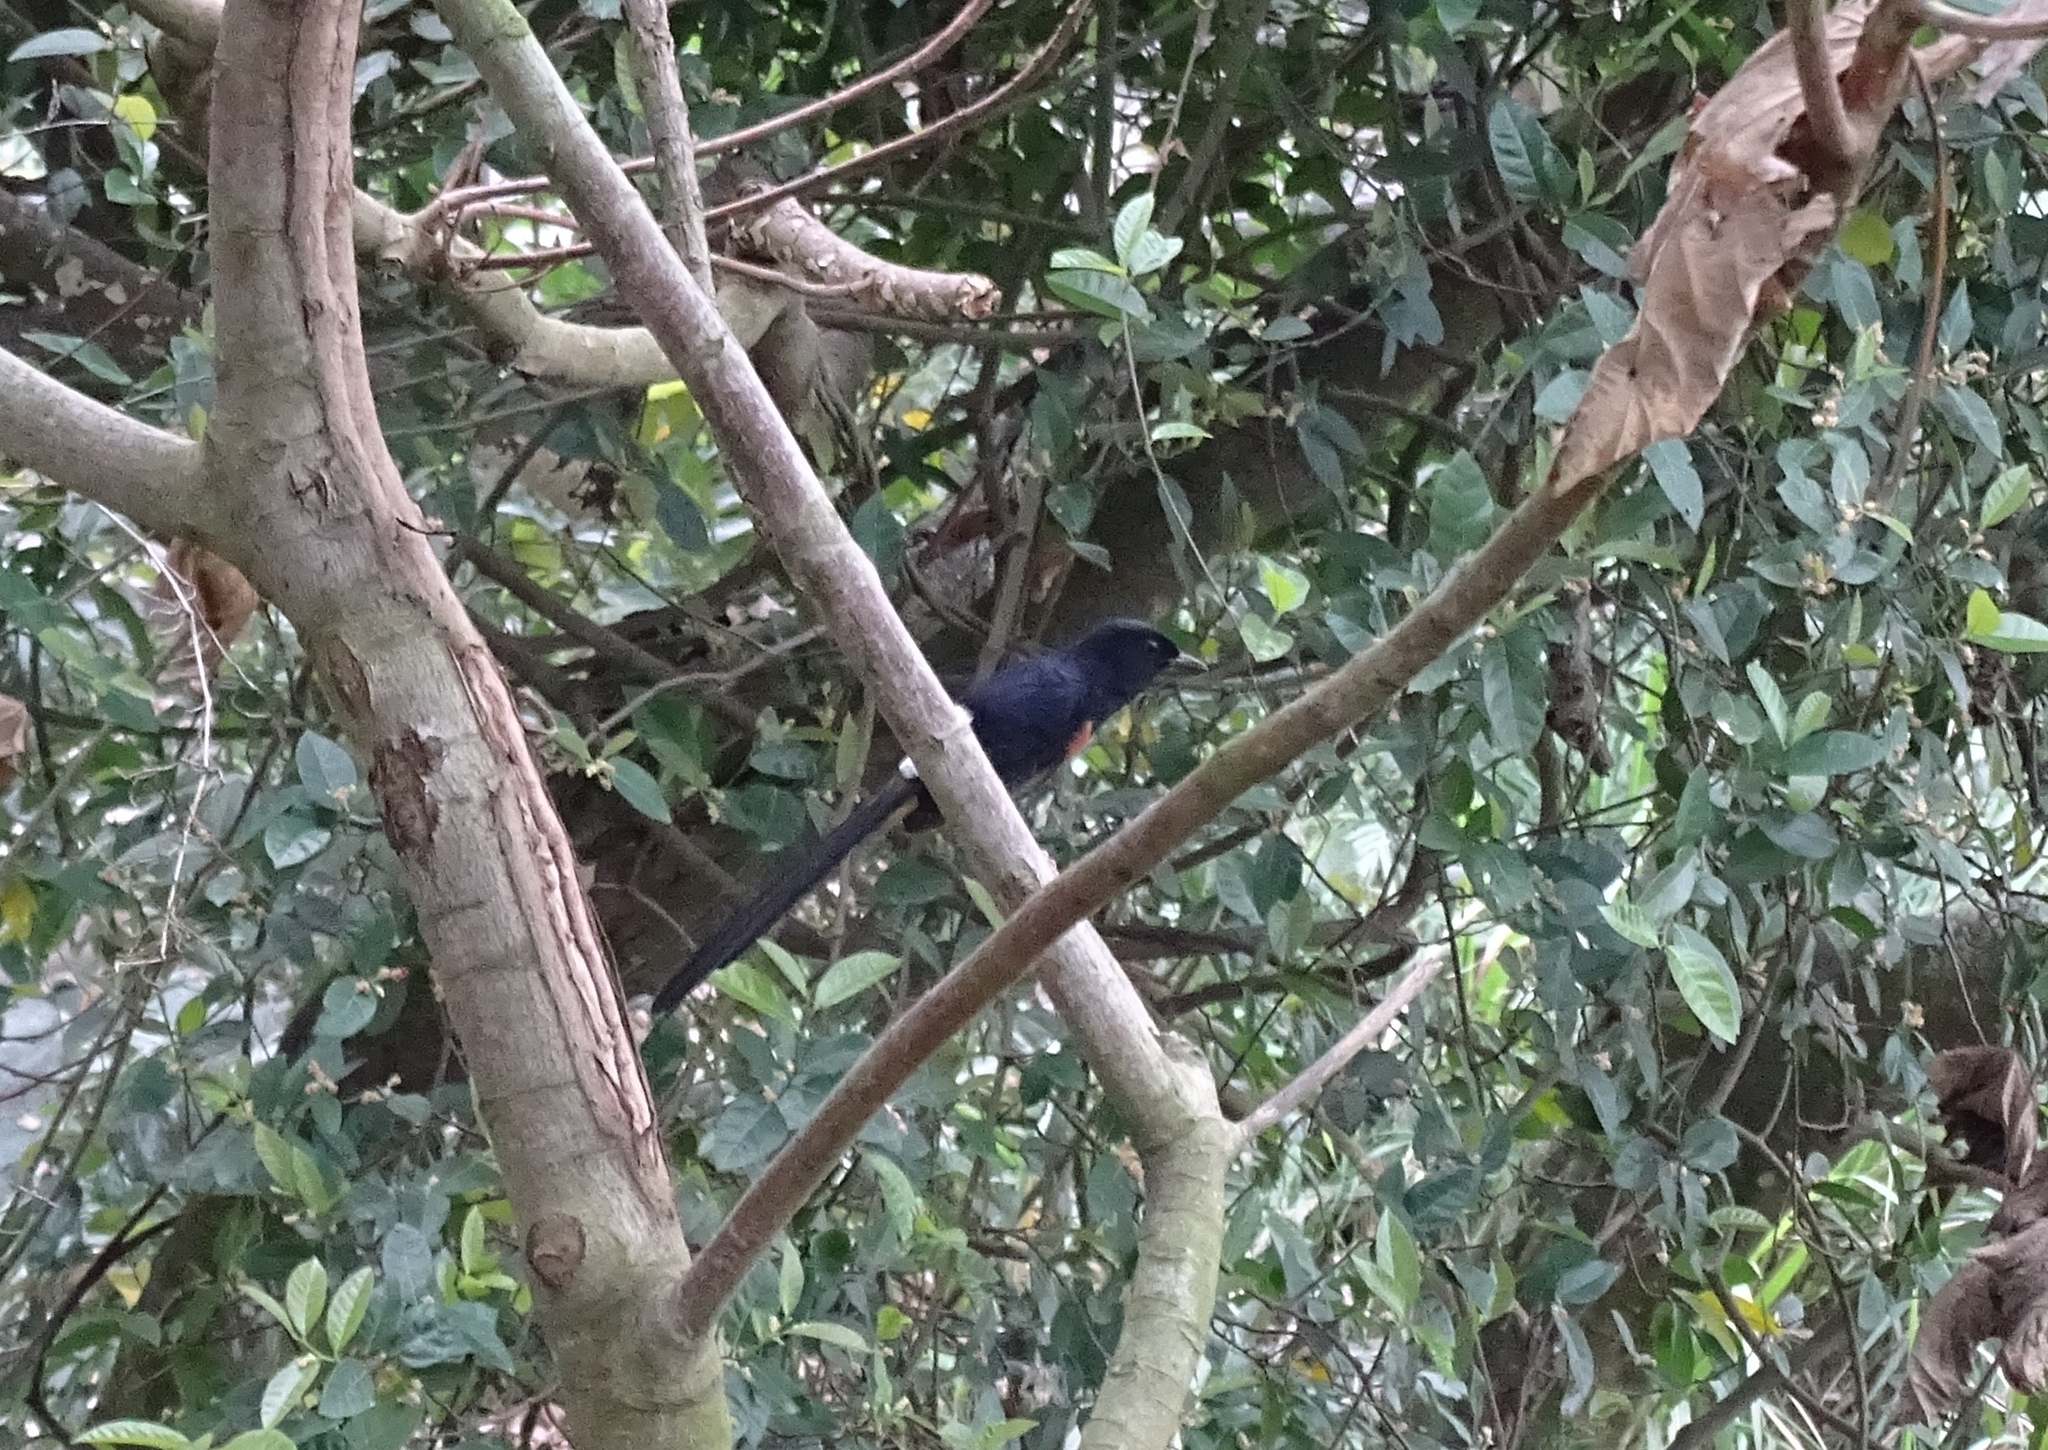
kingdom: Animalia
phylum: Chordata
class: Aves
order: Passeriformes
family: Muscicapidae
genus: Copsychus
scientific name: Copsychus malabaricus
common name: White-rumped shama
